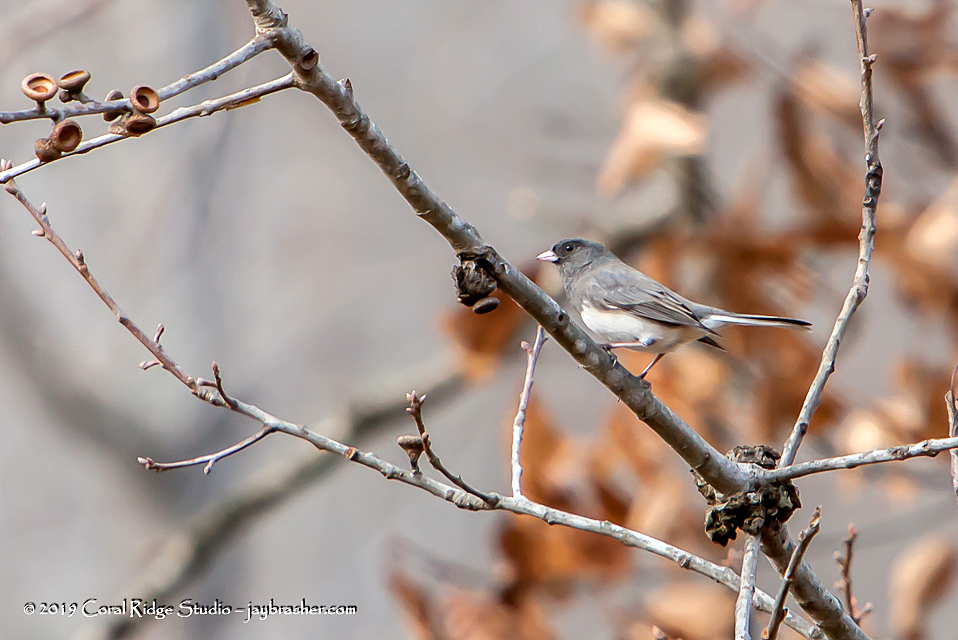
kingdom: Animalia
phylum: Chordata
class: Aves
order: Passeriformes
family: Passerellidae
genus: Junco
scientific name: Junco hyemalis
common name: Dark-eyed junco
